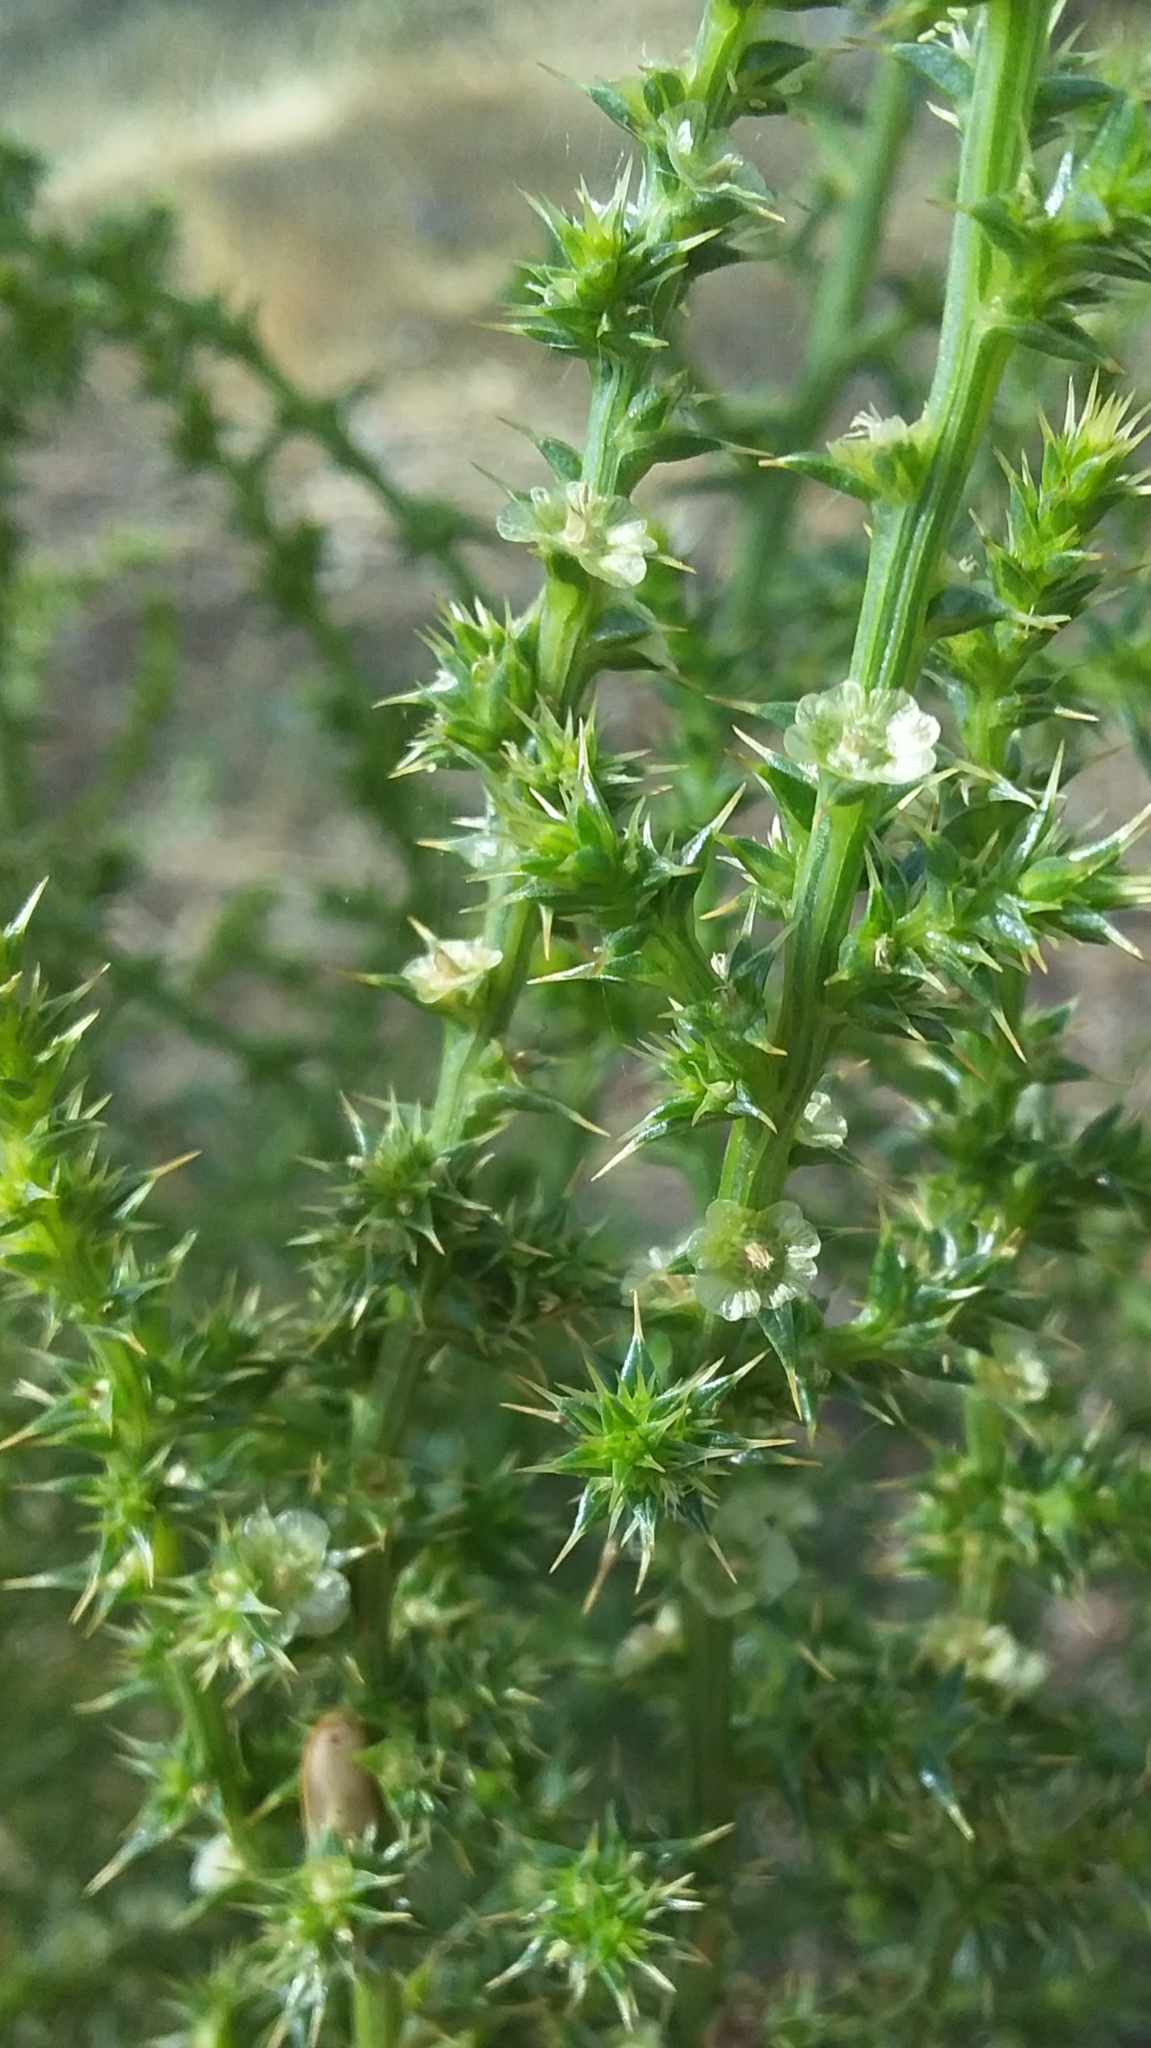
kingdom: Plantae
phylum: Tracheophyta
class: Magnoliopsida
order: Caryophyllales
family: Amaranthaceae
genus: Salsola
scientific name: Salsola australis
